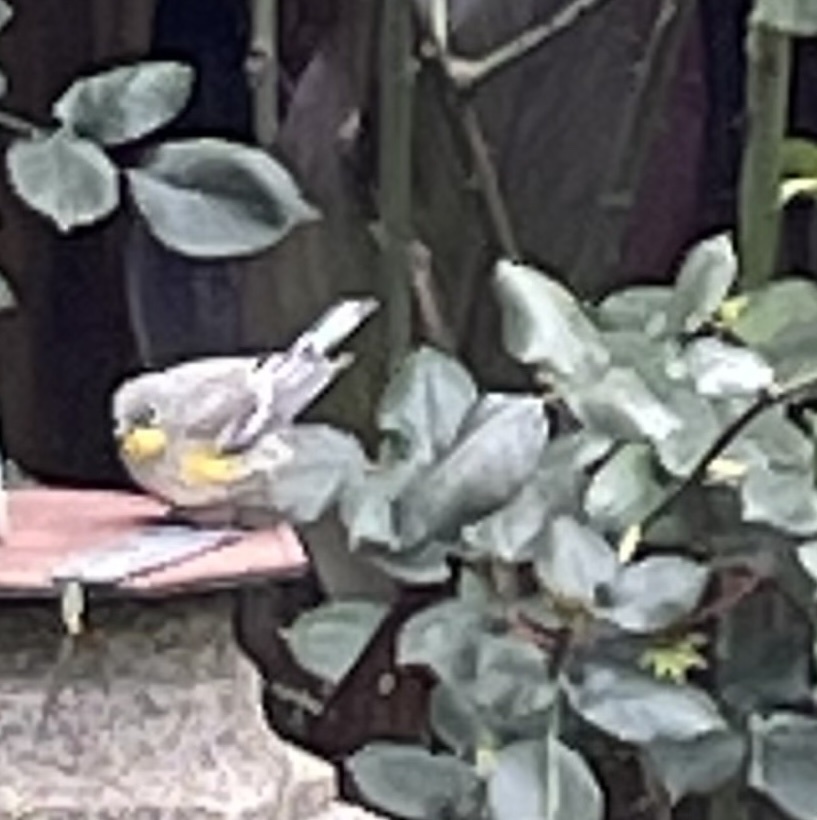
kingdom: Animalia
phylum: Chordata
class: Aves
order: Passeriformes
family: Parulidae
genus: Setophaga
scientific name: Setophaga coronata
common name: Myrtle warbler
